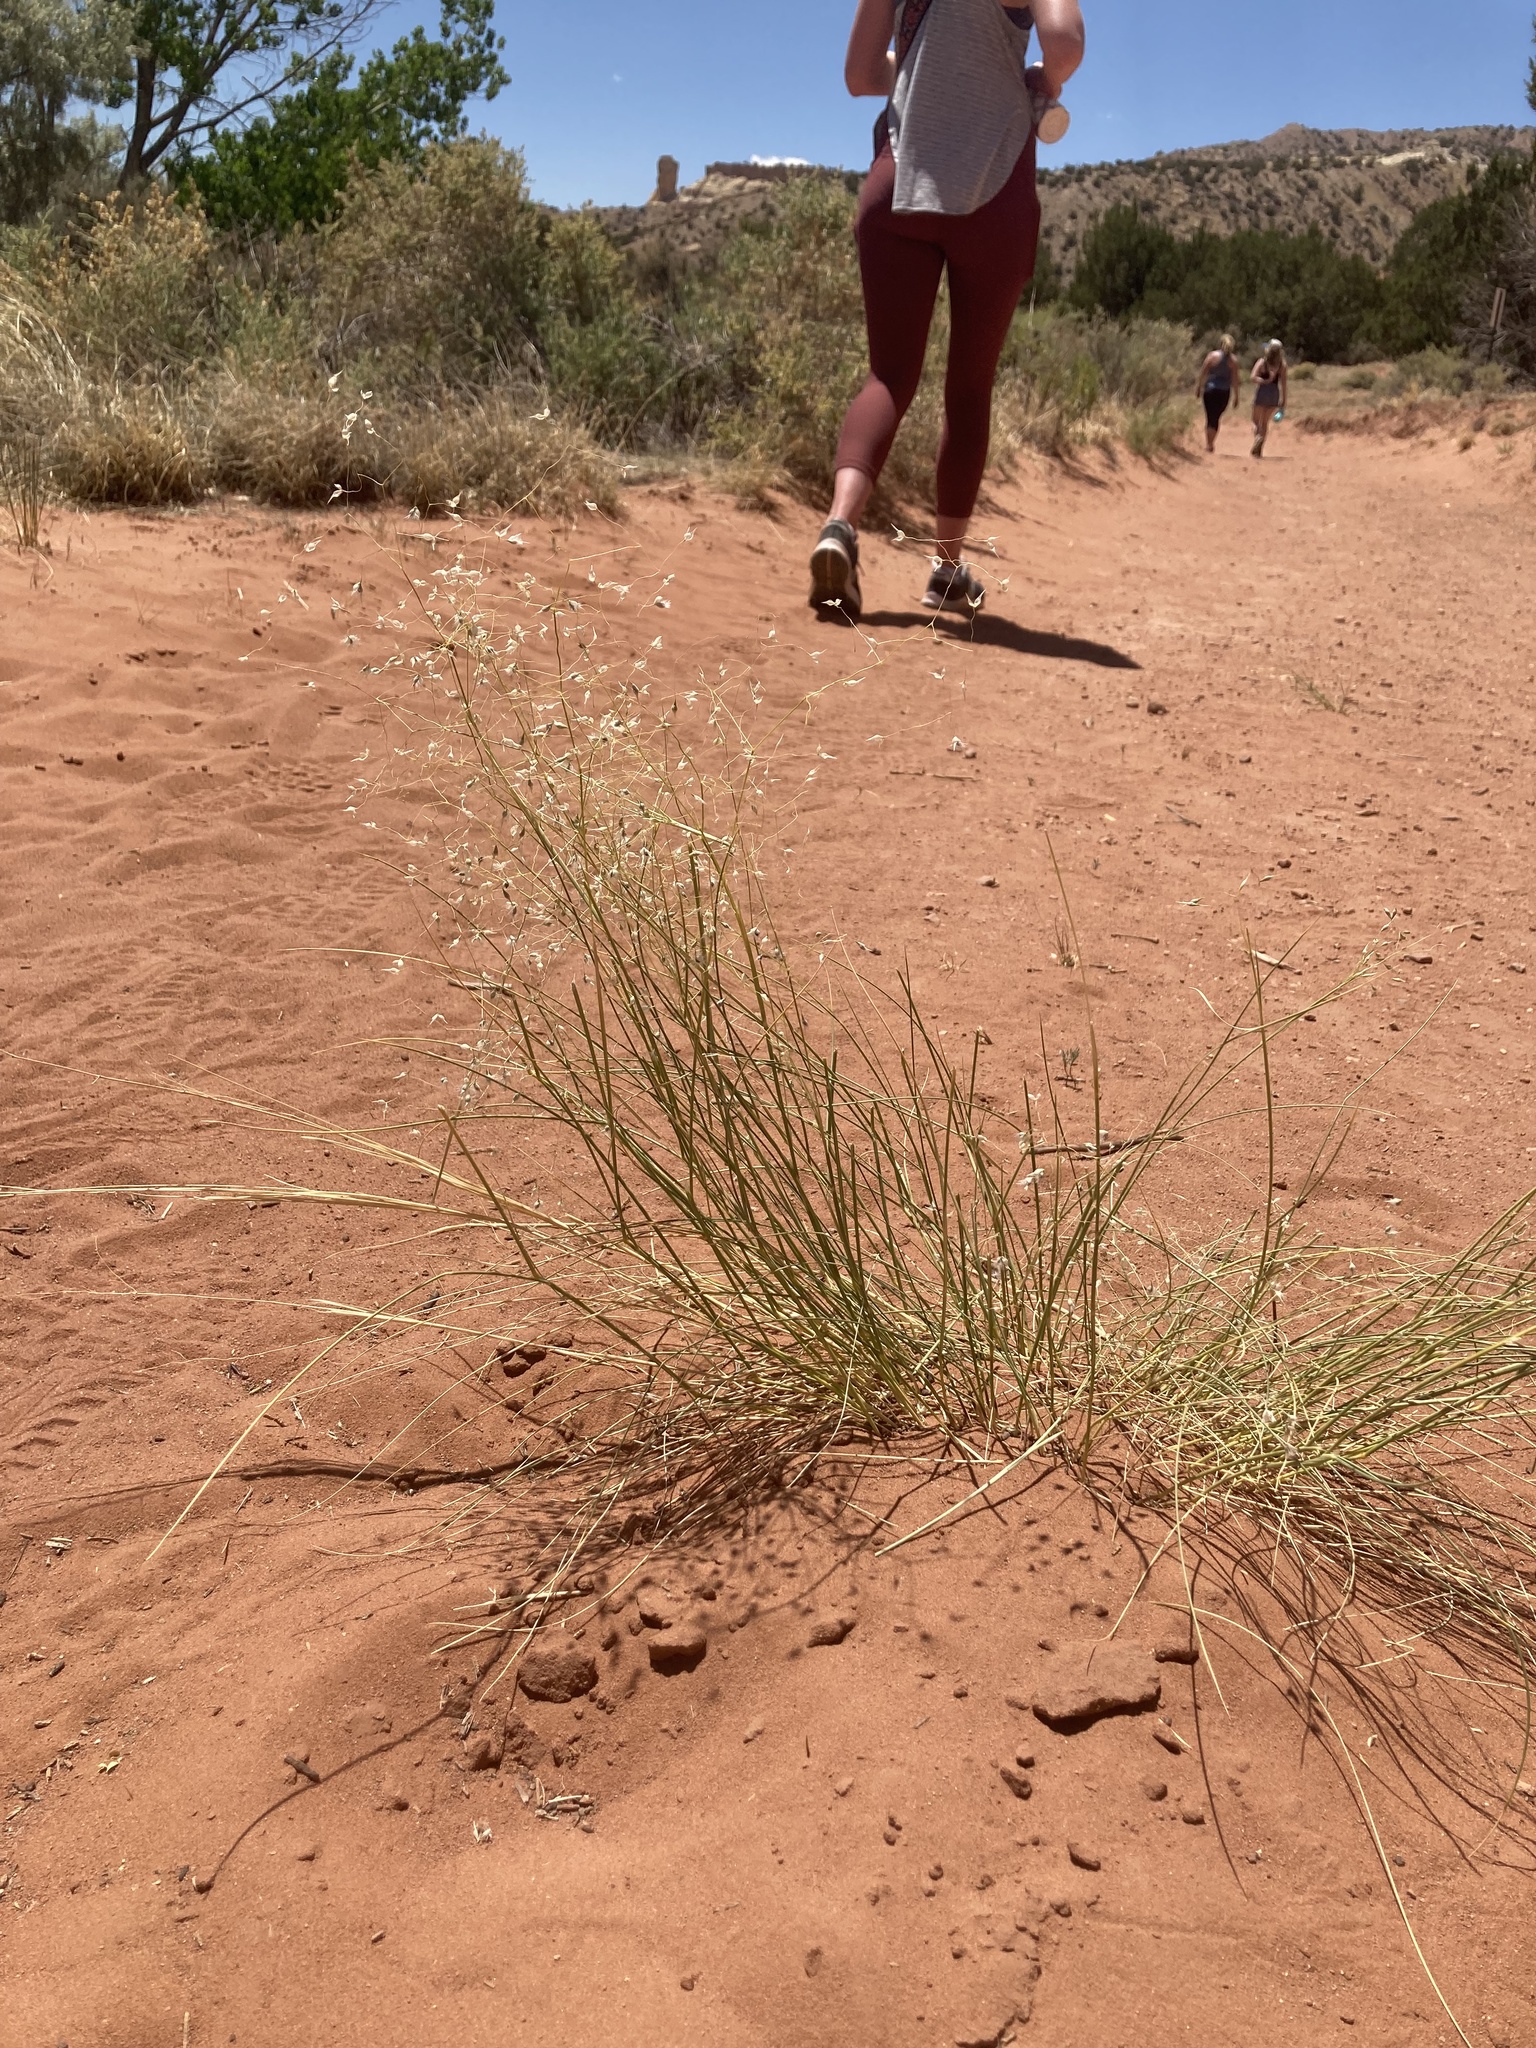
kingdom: Plantae
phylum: Tracheophyta
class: Liliopsida
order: Poales
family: Poaceae
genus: Eriocoma
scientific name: Eriocoma hymenoides
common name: Indian mountain ricegrass
